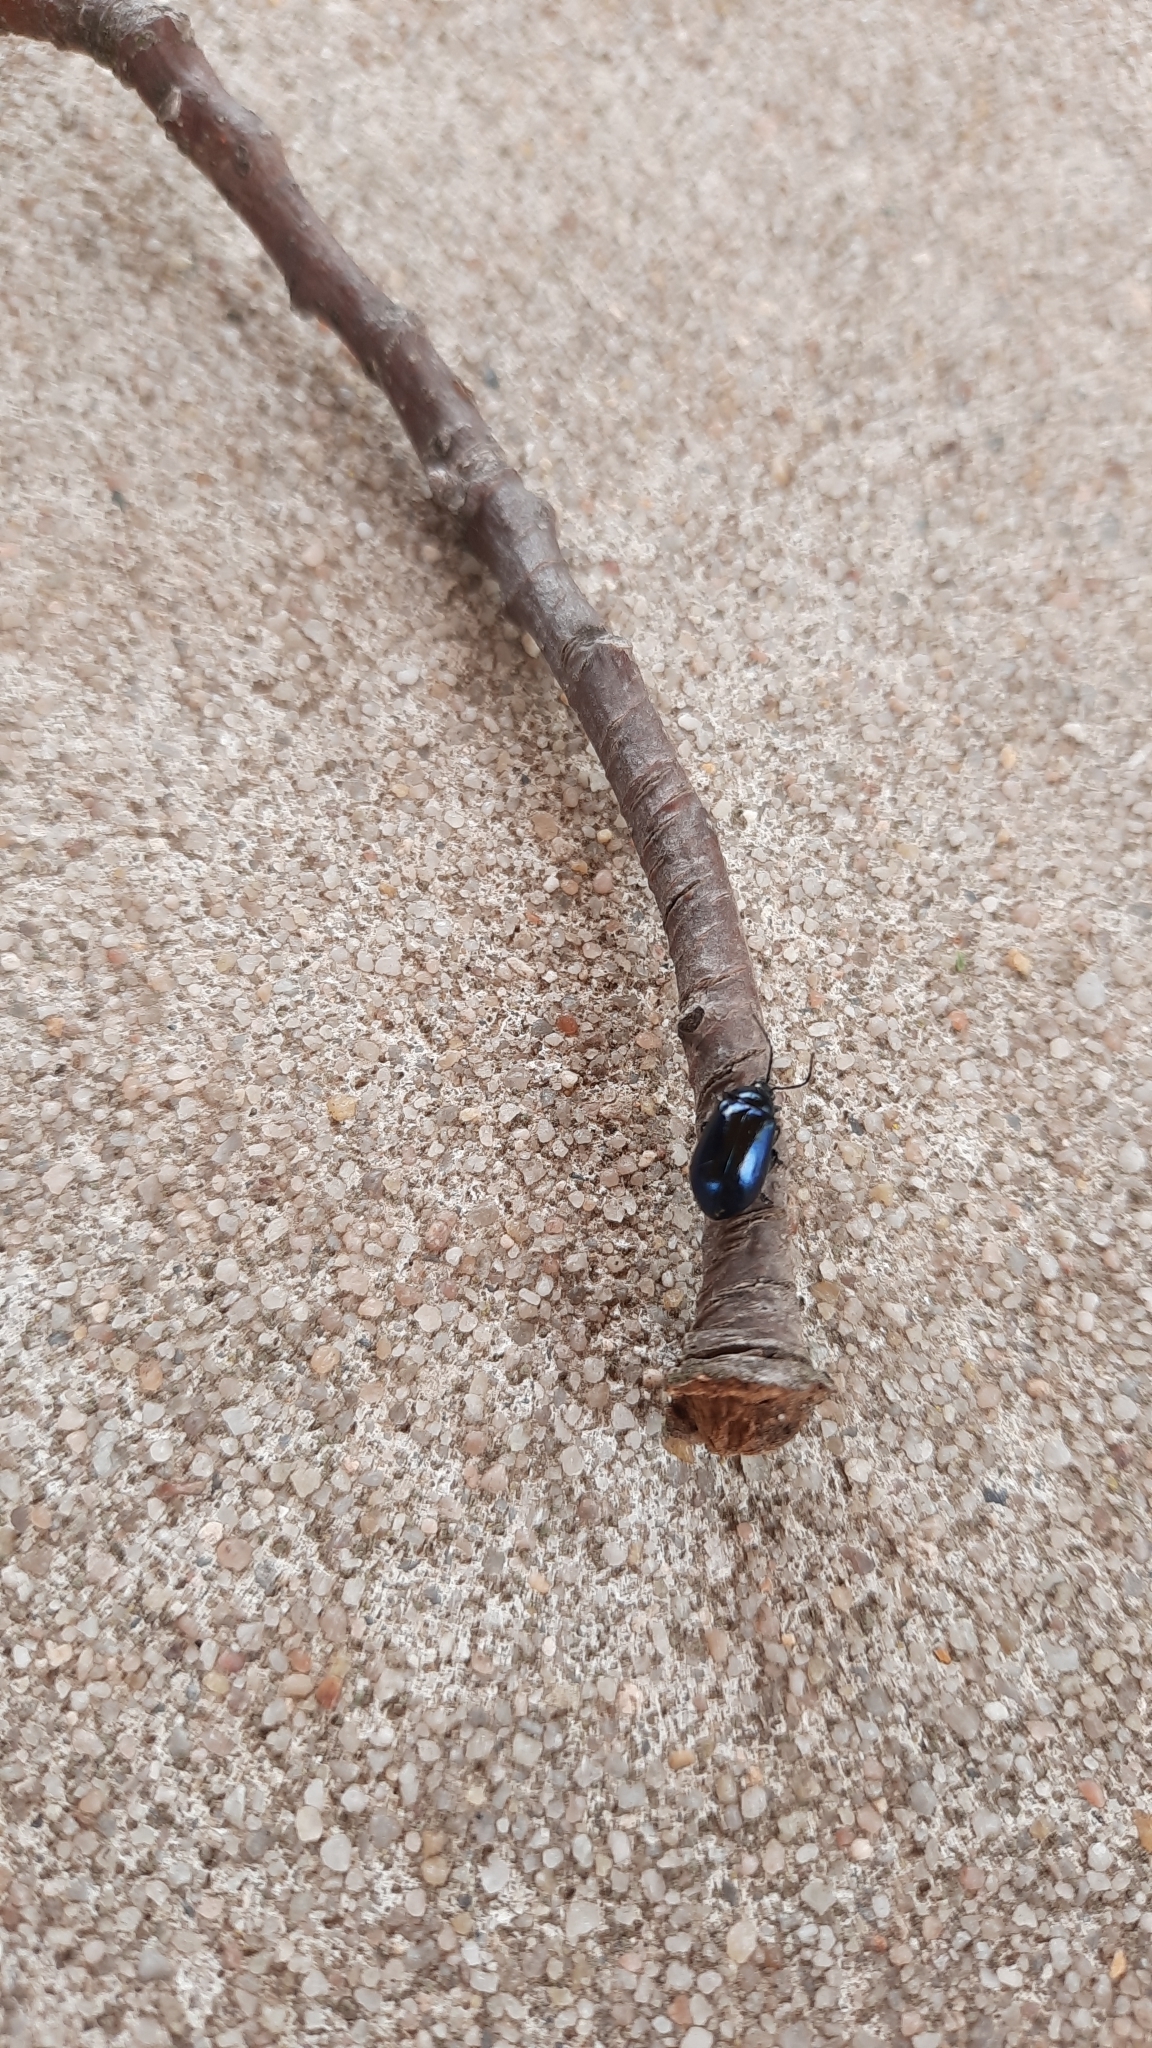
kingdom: Animalia
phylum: Arthropoda
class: Insecta
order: Coleoptera
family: Chrysomelidae
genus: Agelastica
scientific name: Agelastica alni
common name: Alder leaf beetle
